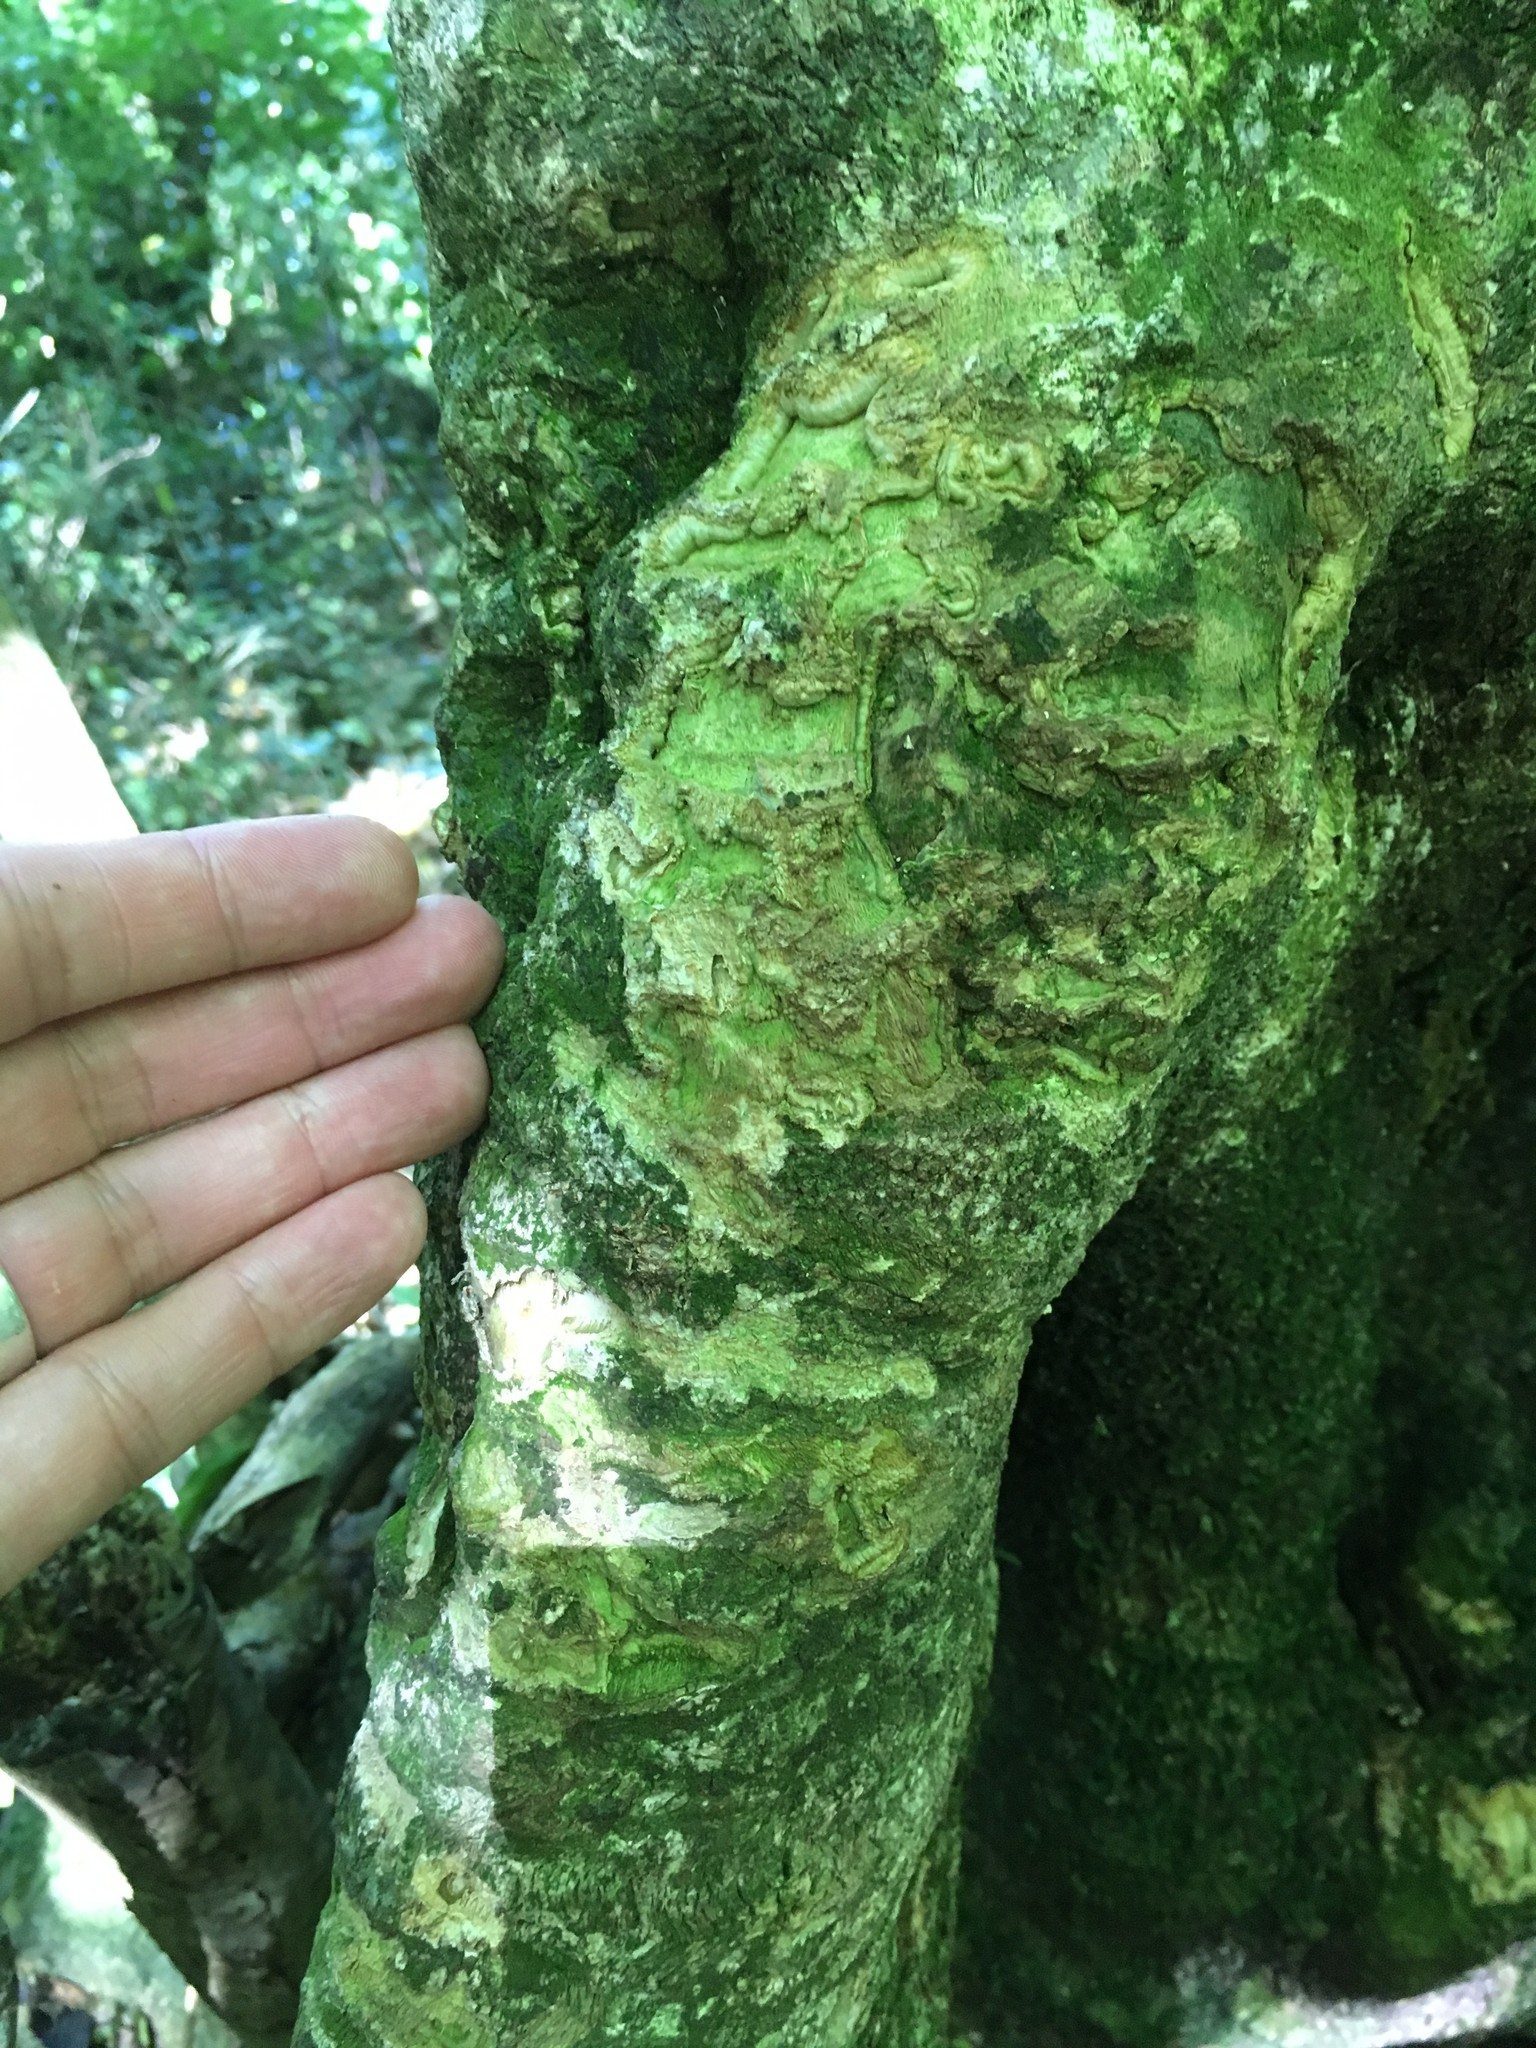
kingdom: Animalia
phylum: Chordata
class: Mammalia
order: Diprotodontia
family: Phalangeridae
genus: Trichosurus
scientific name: Trichosurus vulpecula
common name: Common brushtail
